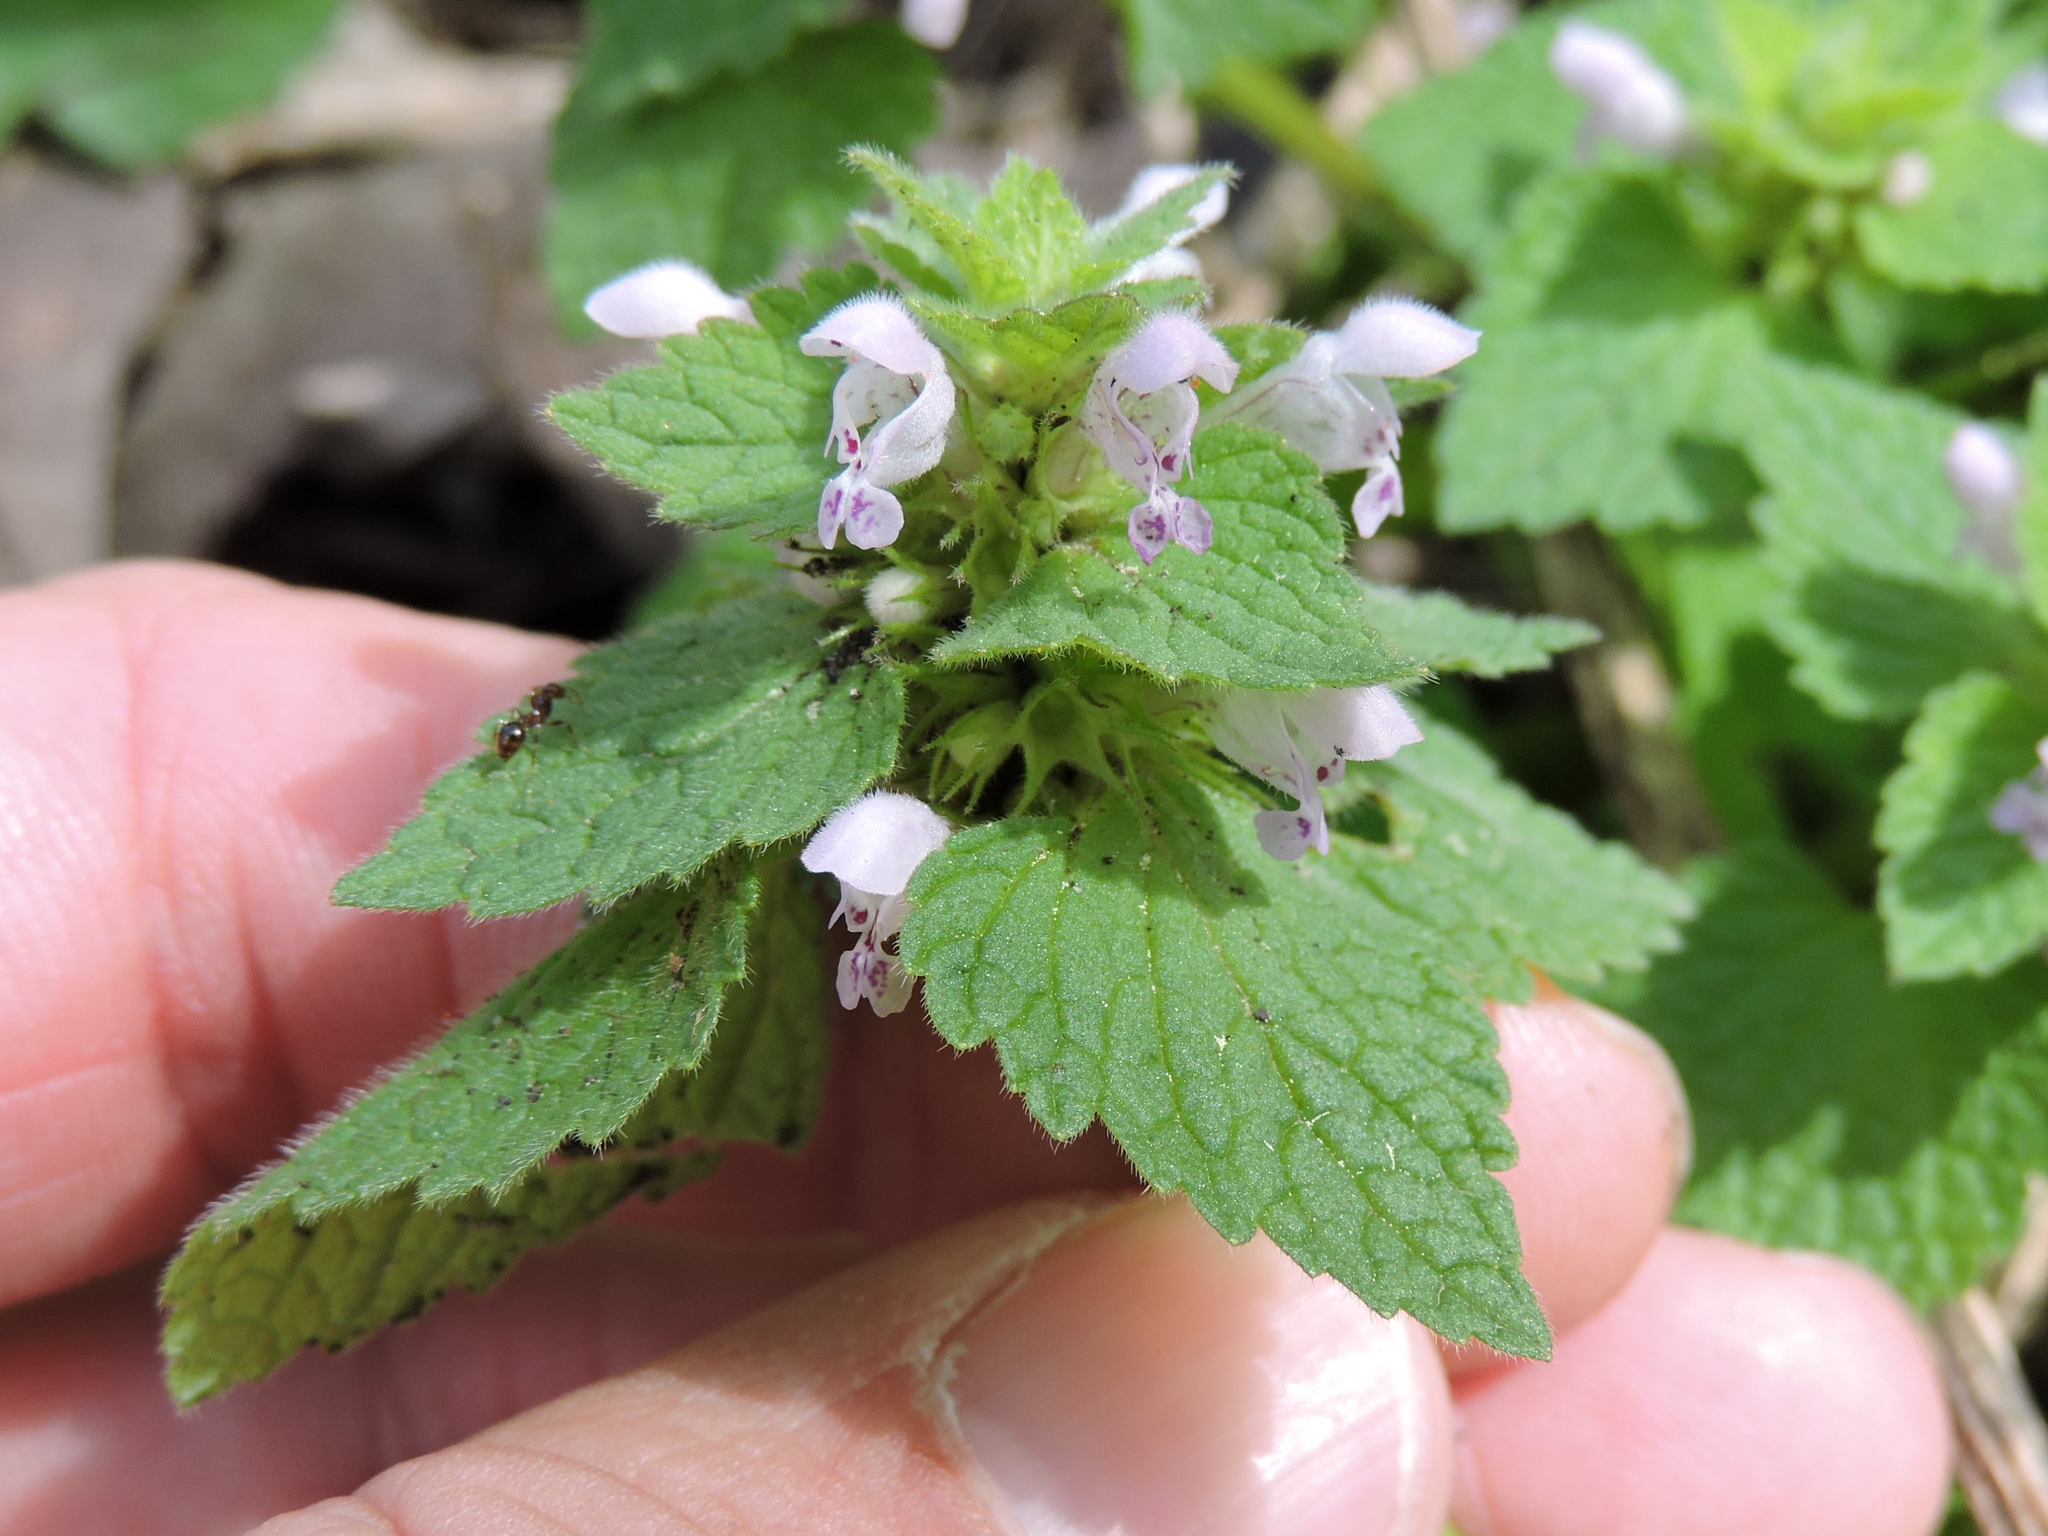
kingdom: Plantae
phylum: Tracheophyta
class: Magnoliopsida
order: Lamiales
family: Lamiaceae
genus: Lamium
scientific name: Lamium purpureum
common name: Red dead-nettle
